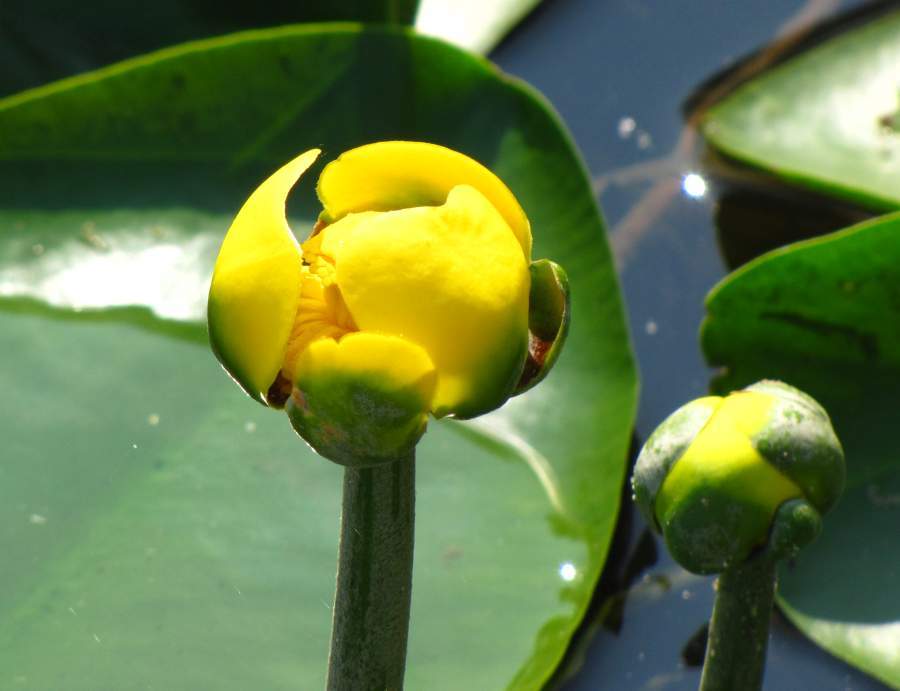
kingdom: Plantae
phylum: Tracheophyta
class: Magnoliopsida
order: Nymphaeales
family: Nymphaeaceae
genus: Nuphar
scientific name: Nuphar variegata
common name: Beaver-root
